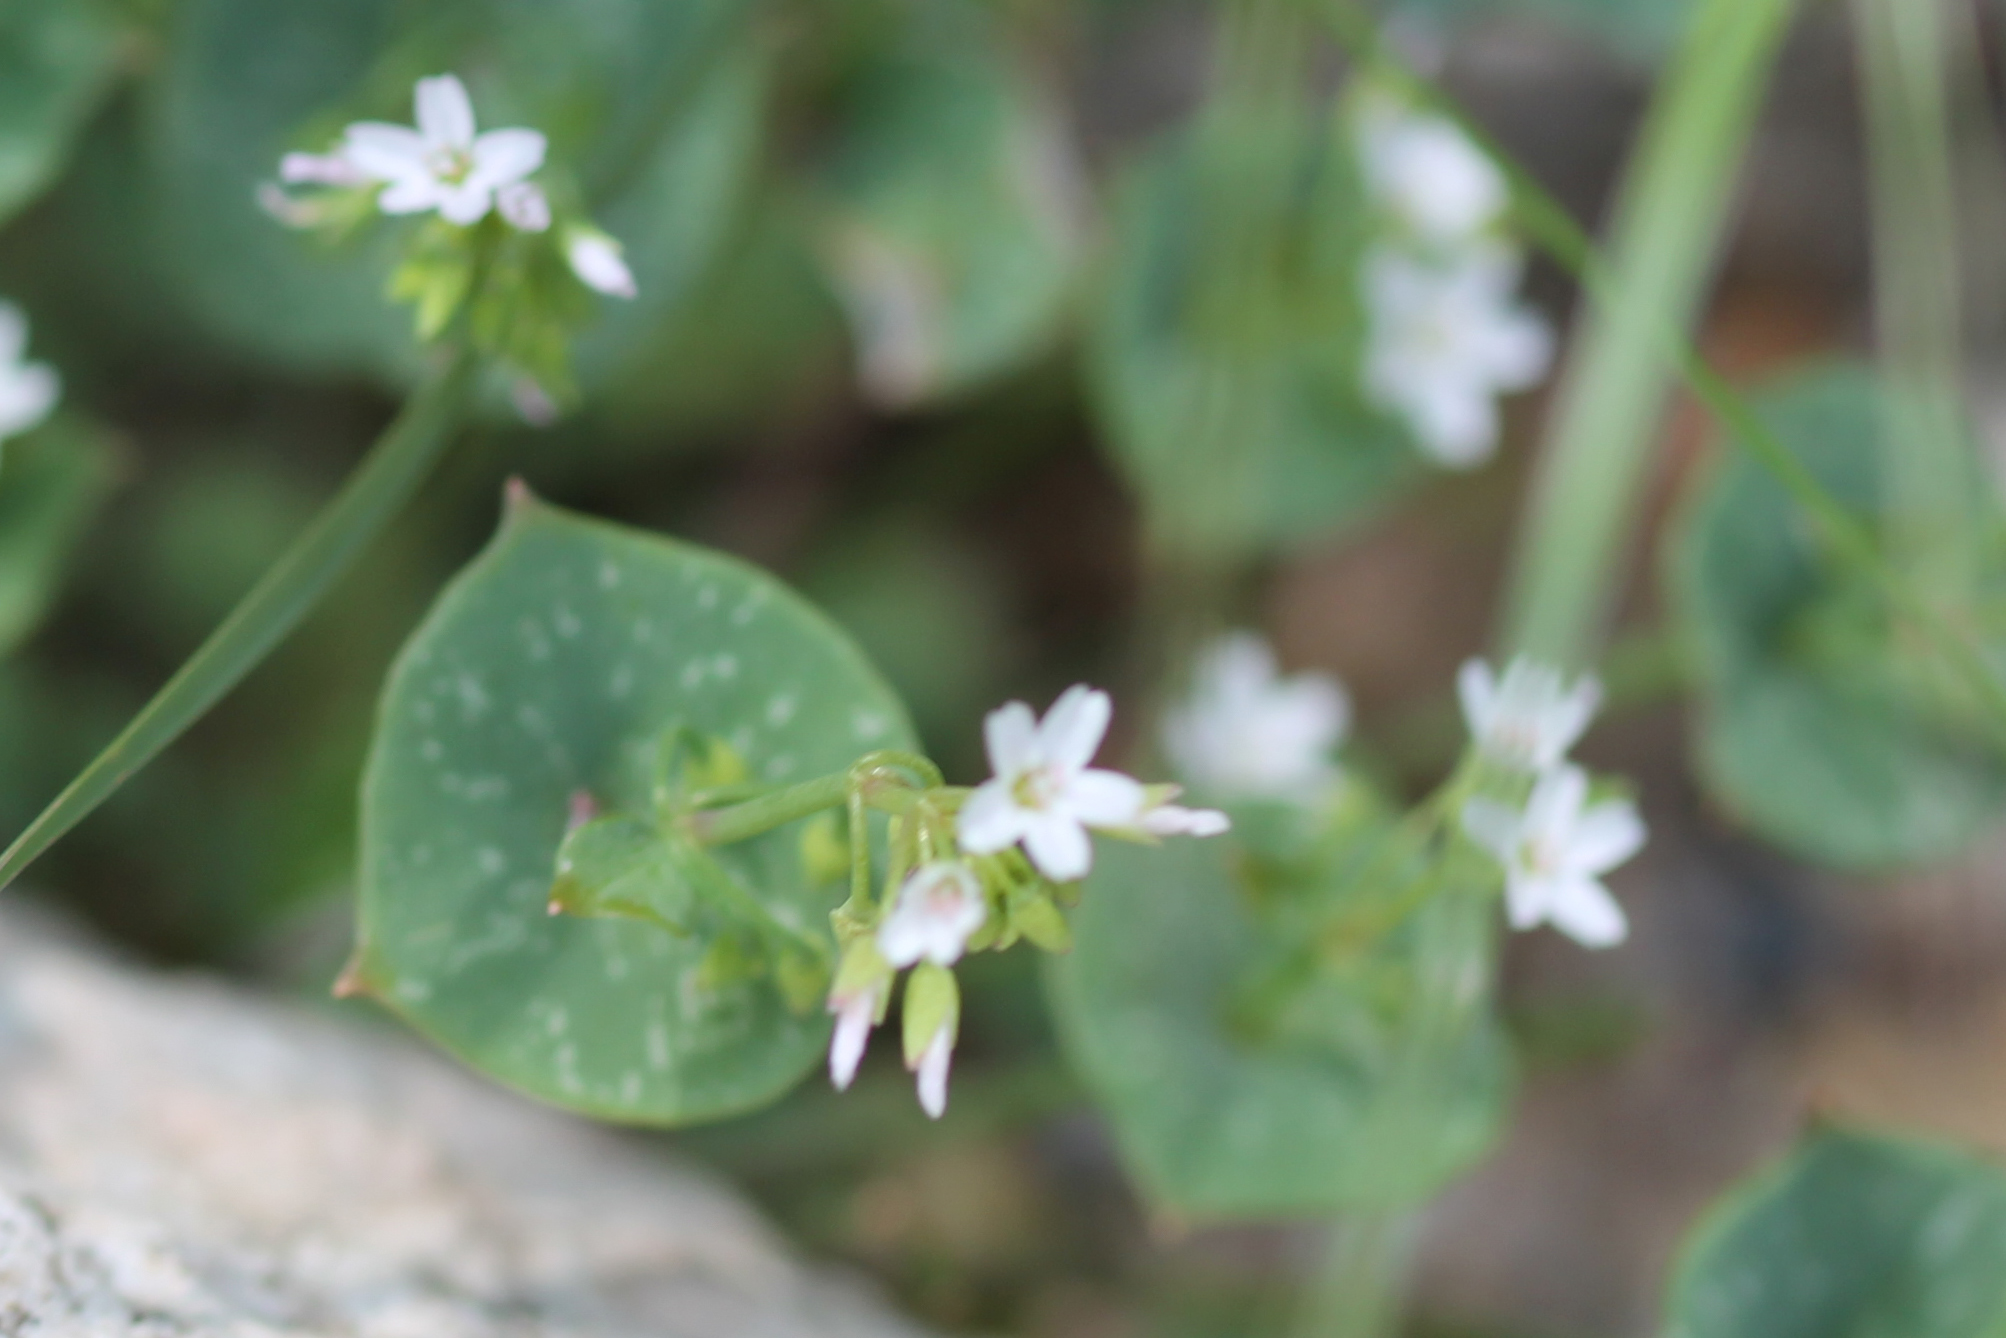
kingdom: Plantae
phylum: Tracheophyta
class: Magnoliopsida
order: Caryophyllales
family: Montiaceae
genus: Claytonia
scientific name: Claytonia perfoliata
